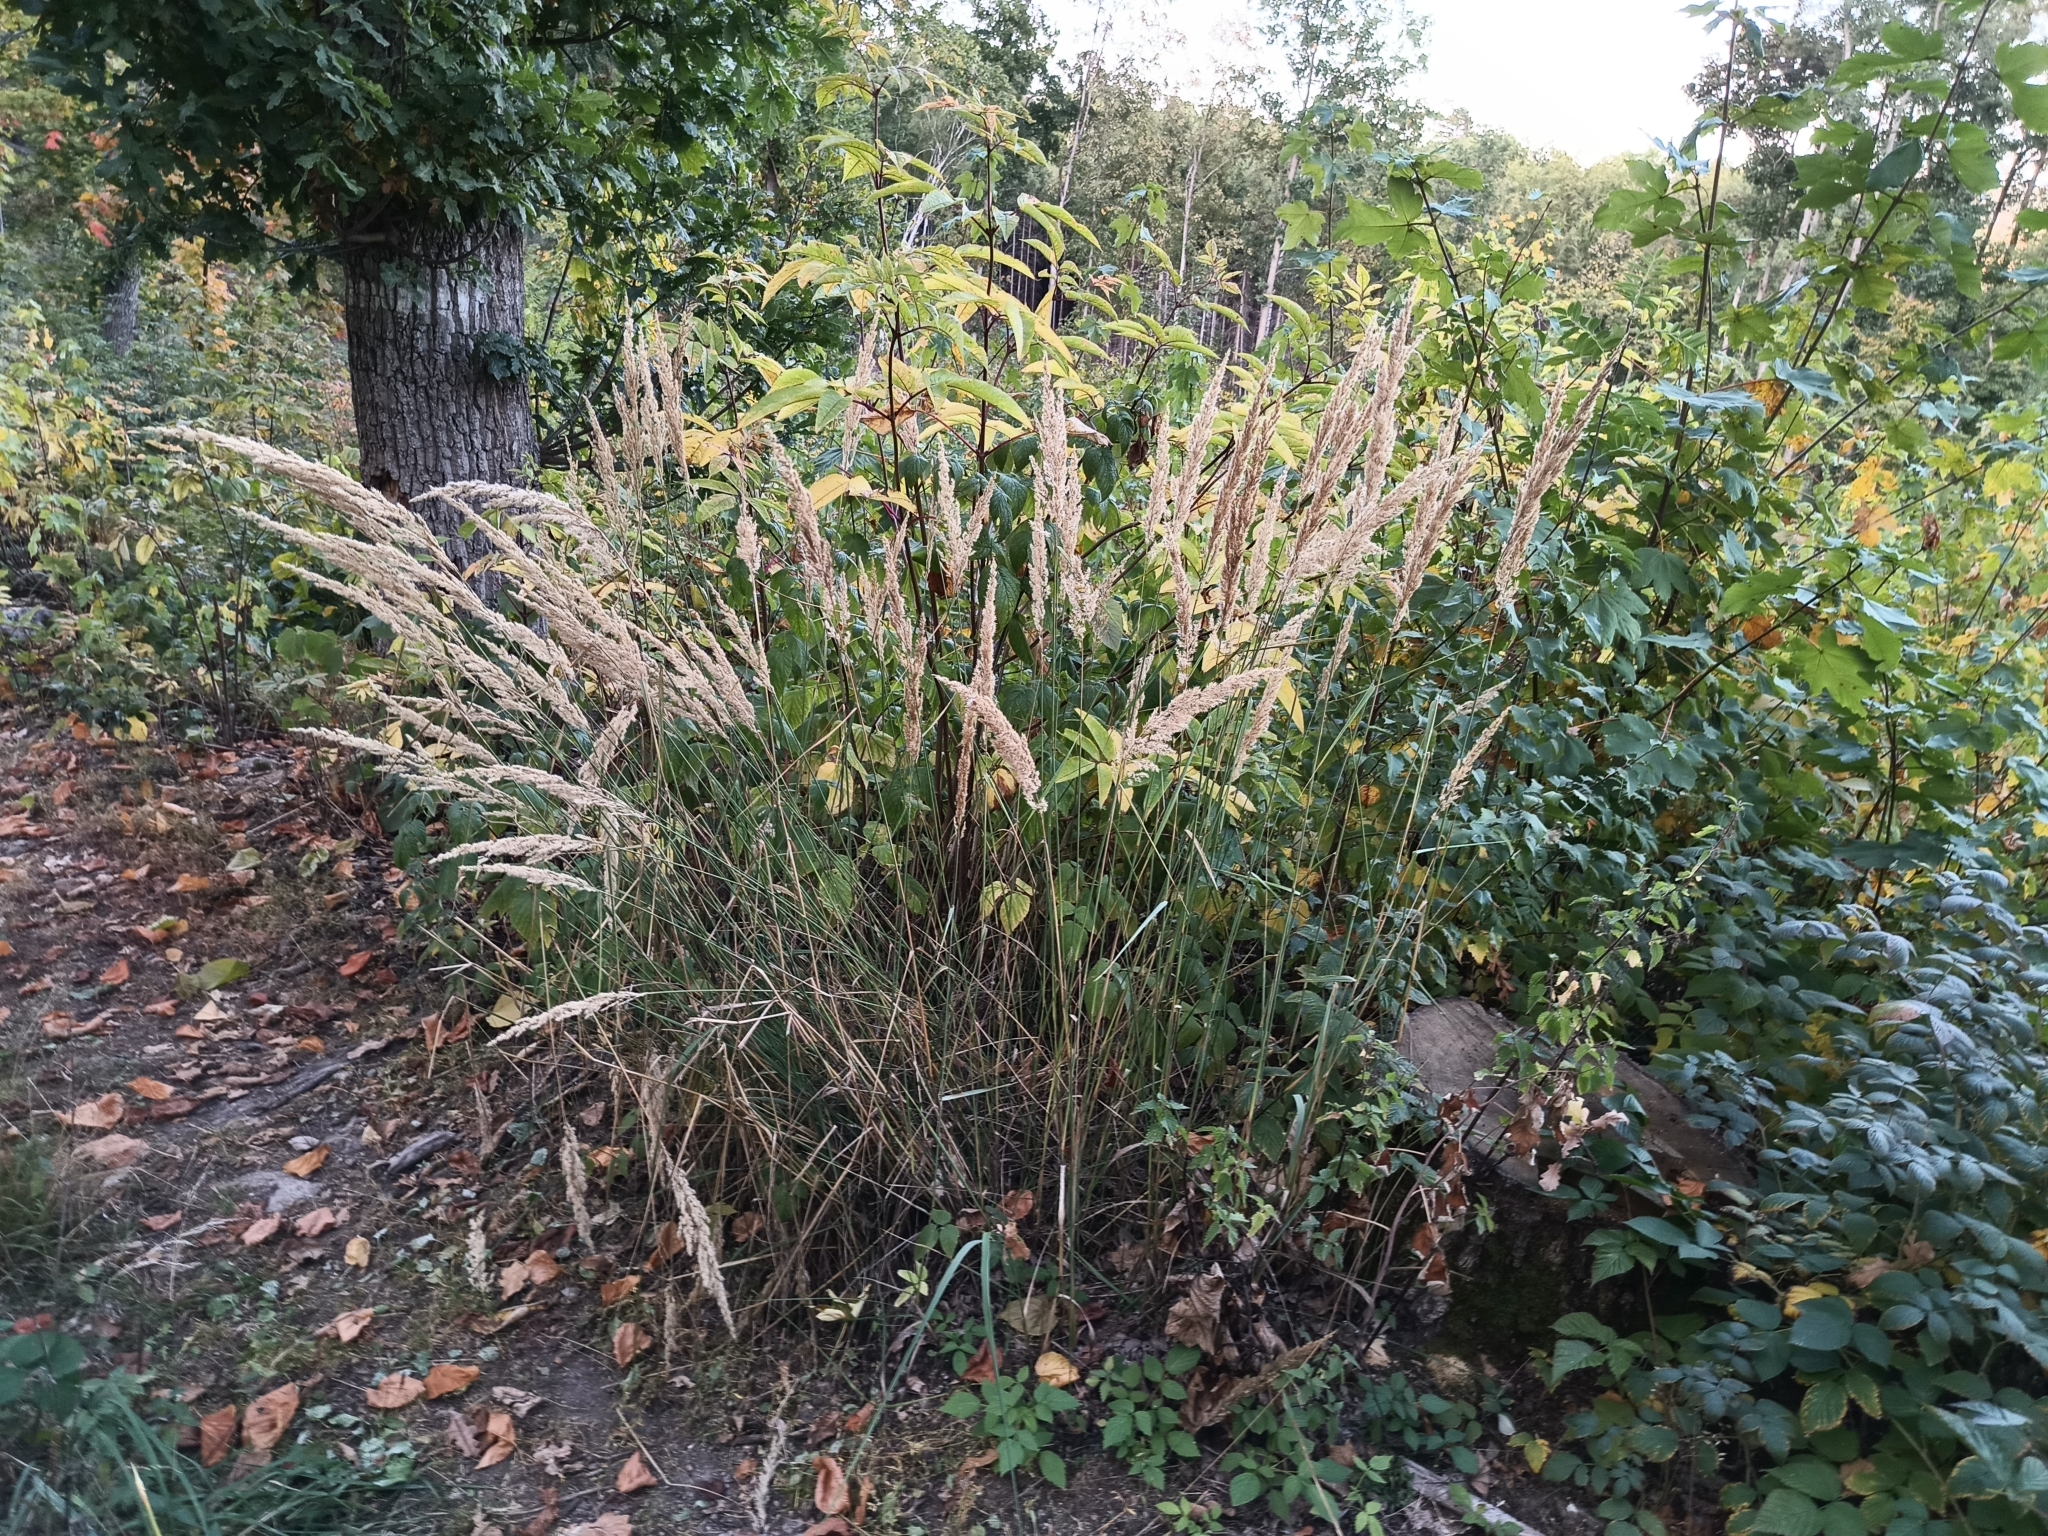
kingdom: Plantae
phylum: Tracheophyta
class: Liliopsida
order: Poales
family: Poaceae
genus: Calamagrostis
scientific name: Calamagrostis epigejos
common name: Wood small-reed
